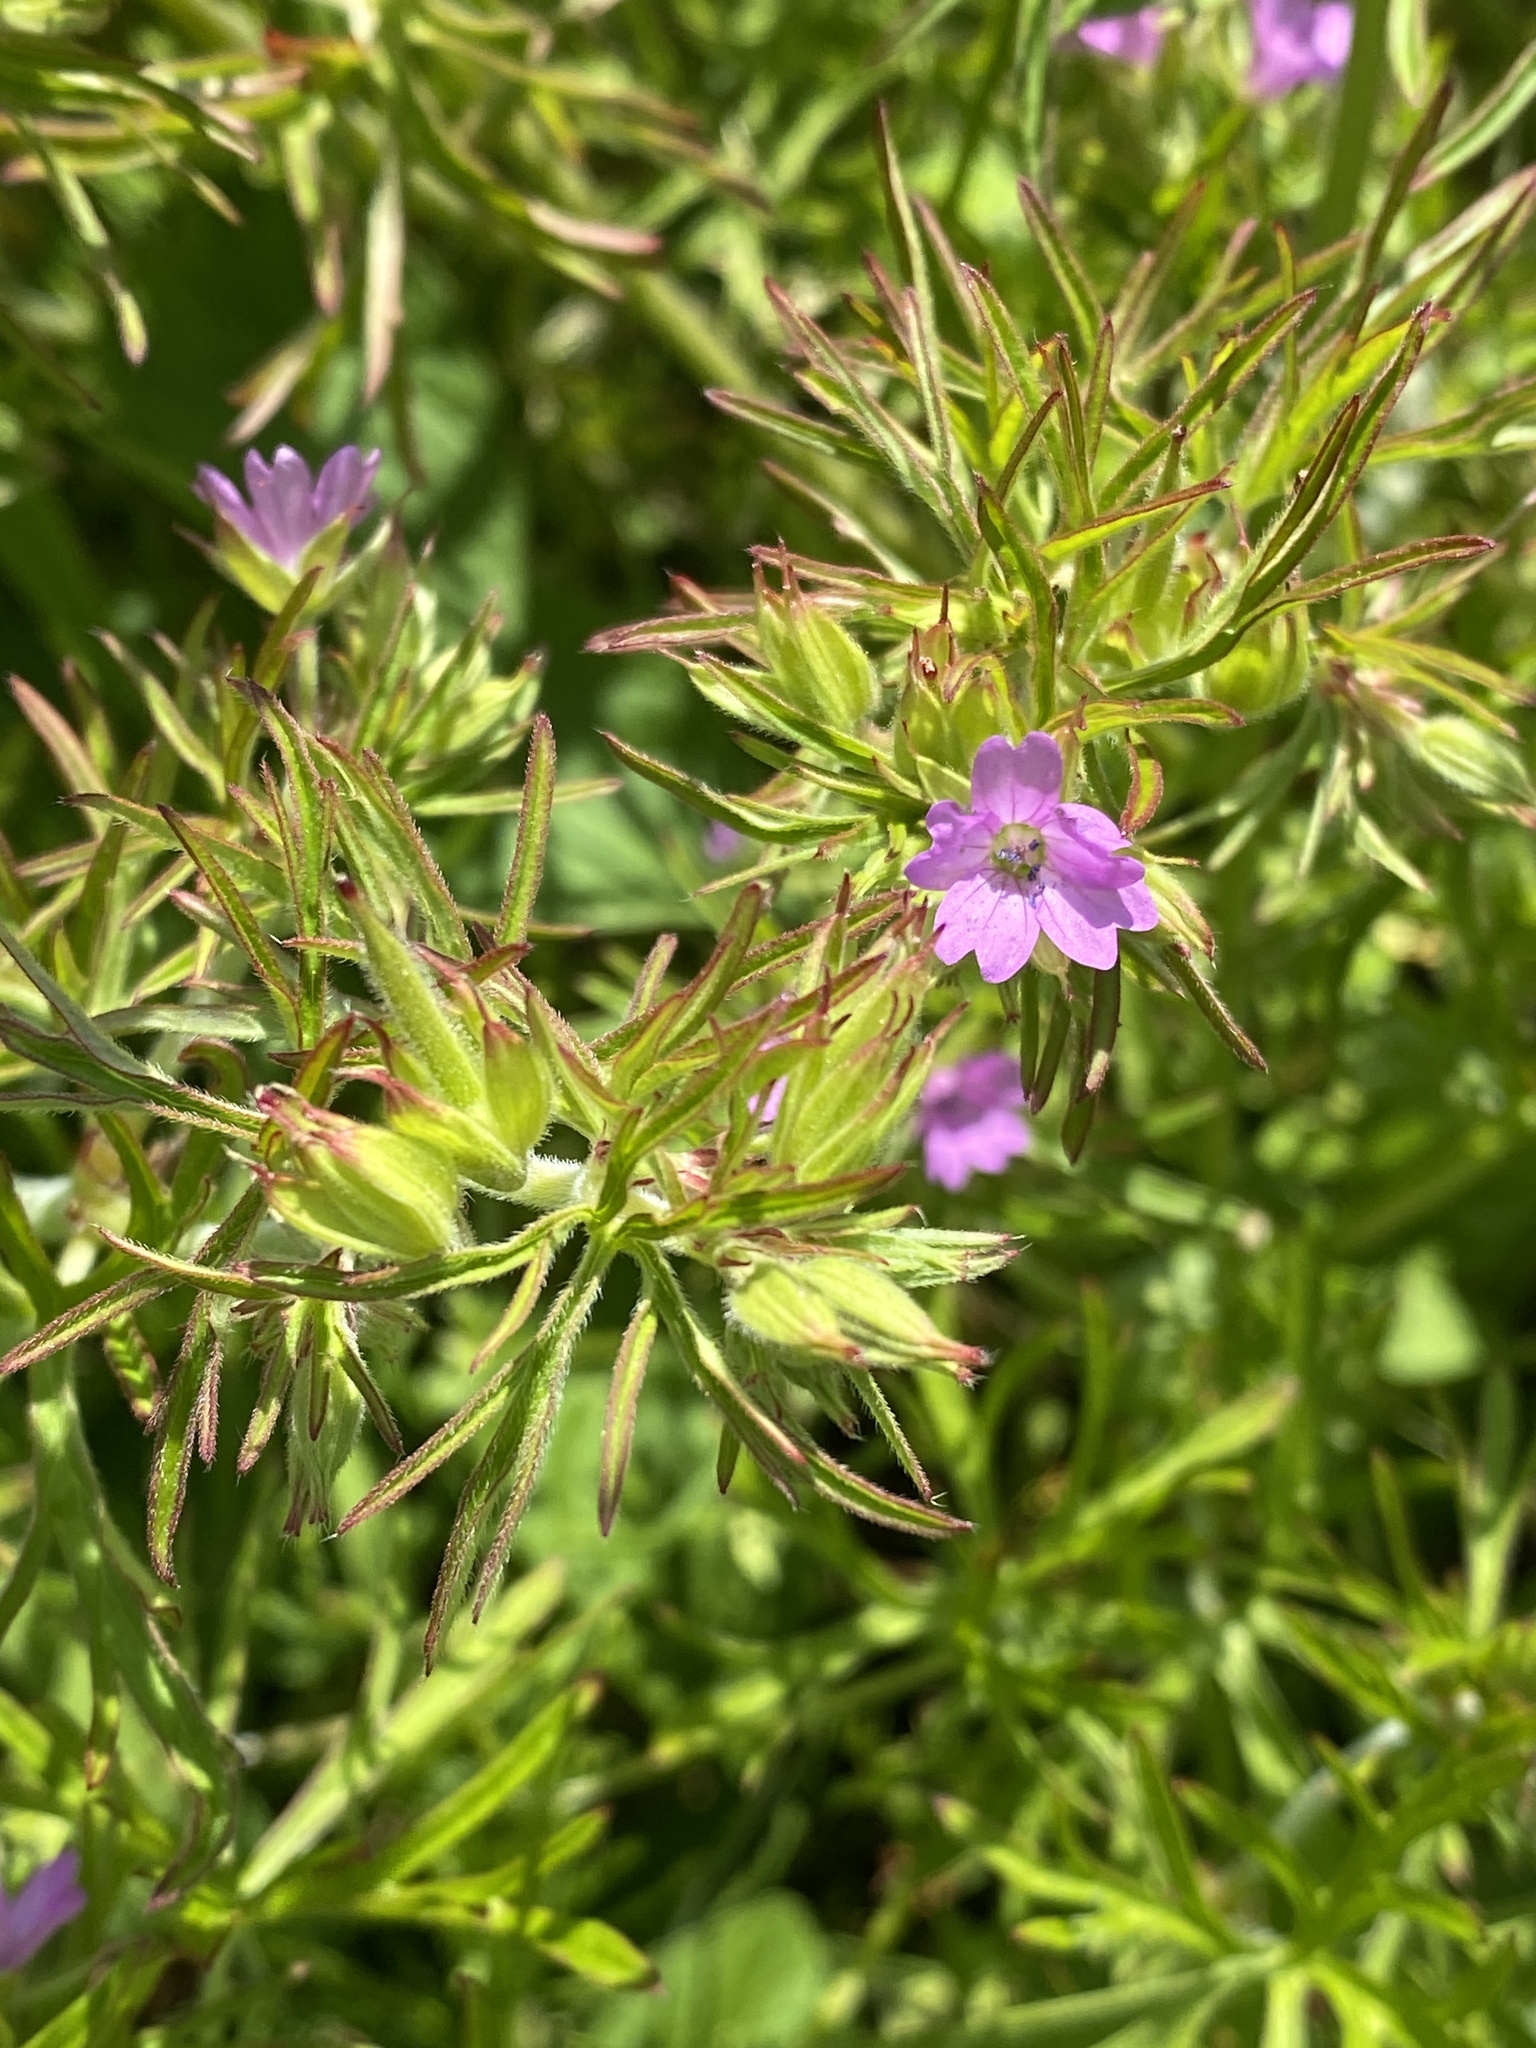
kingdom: Plantae
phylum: Tracheophyta
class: Magnoliopsida
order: Geraniales
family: Geraniaceae
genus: Geranium
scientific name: Geranium dissectum
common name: Cut-leaved crane's-bill
